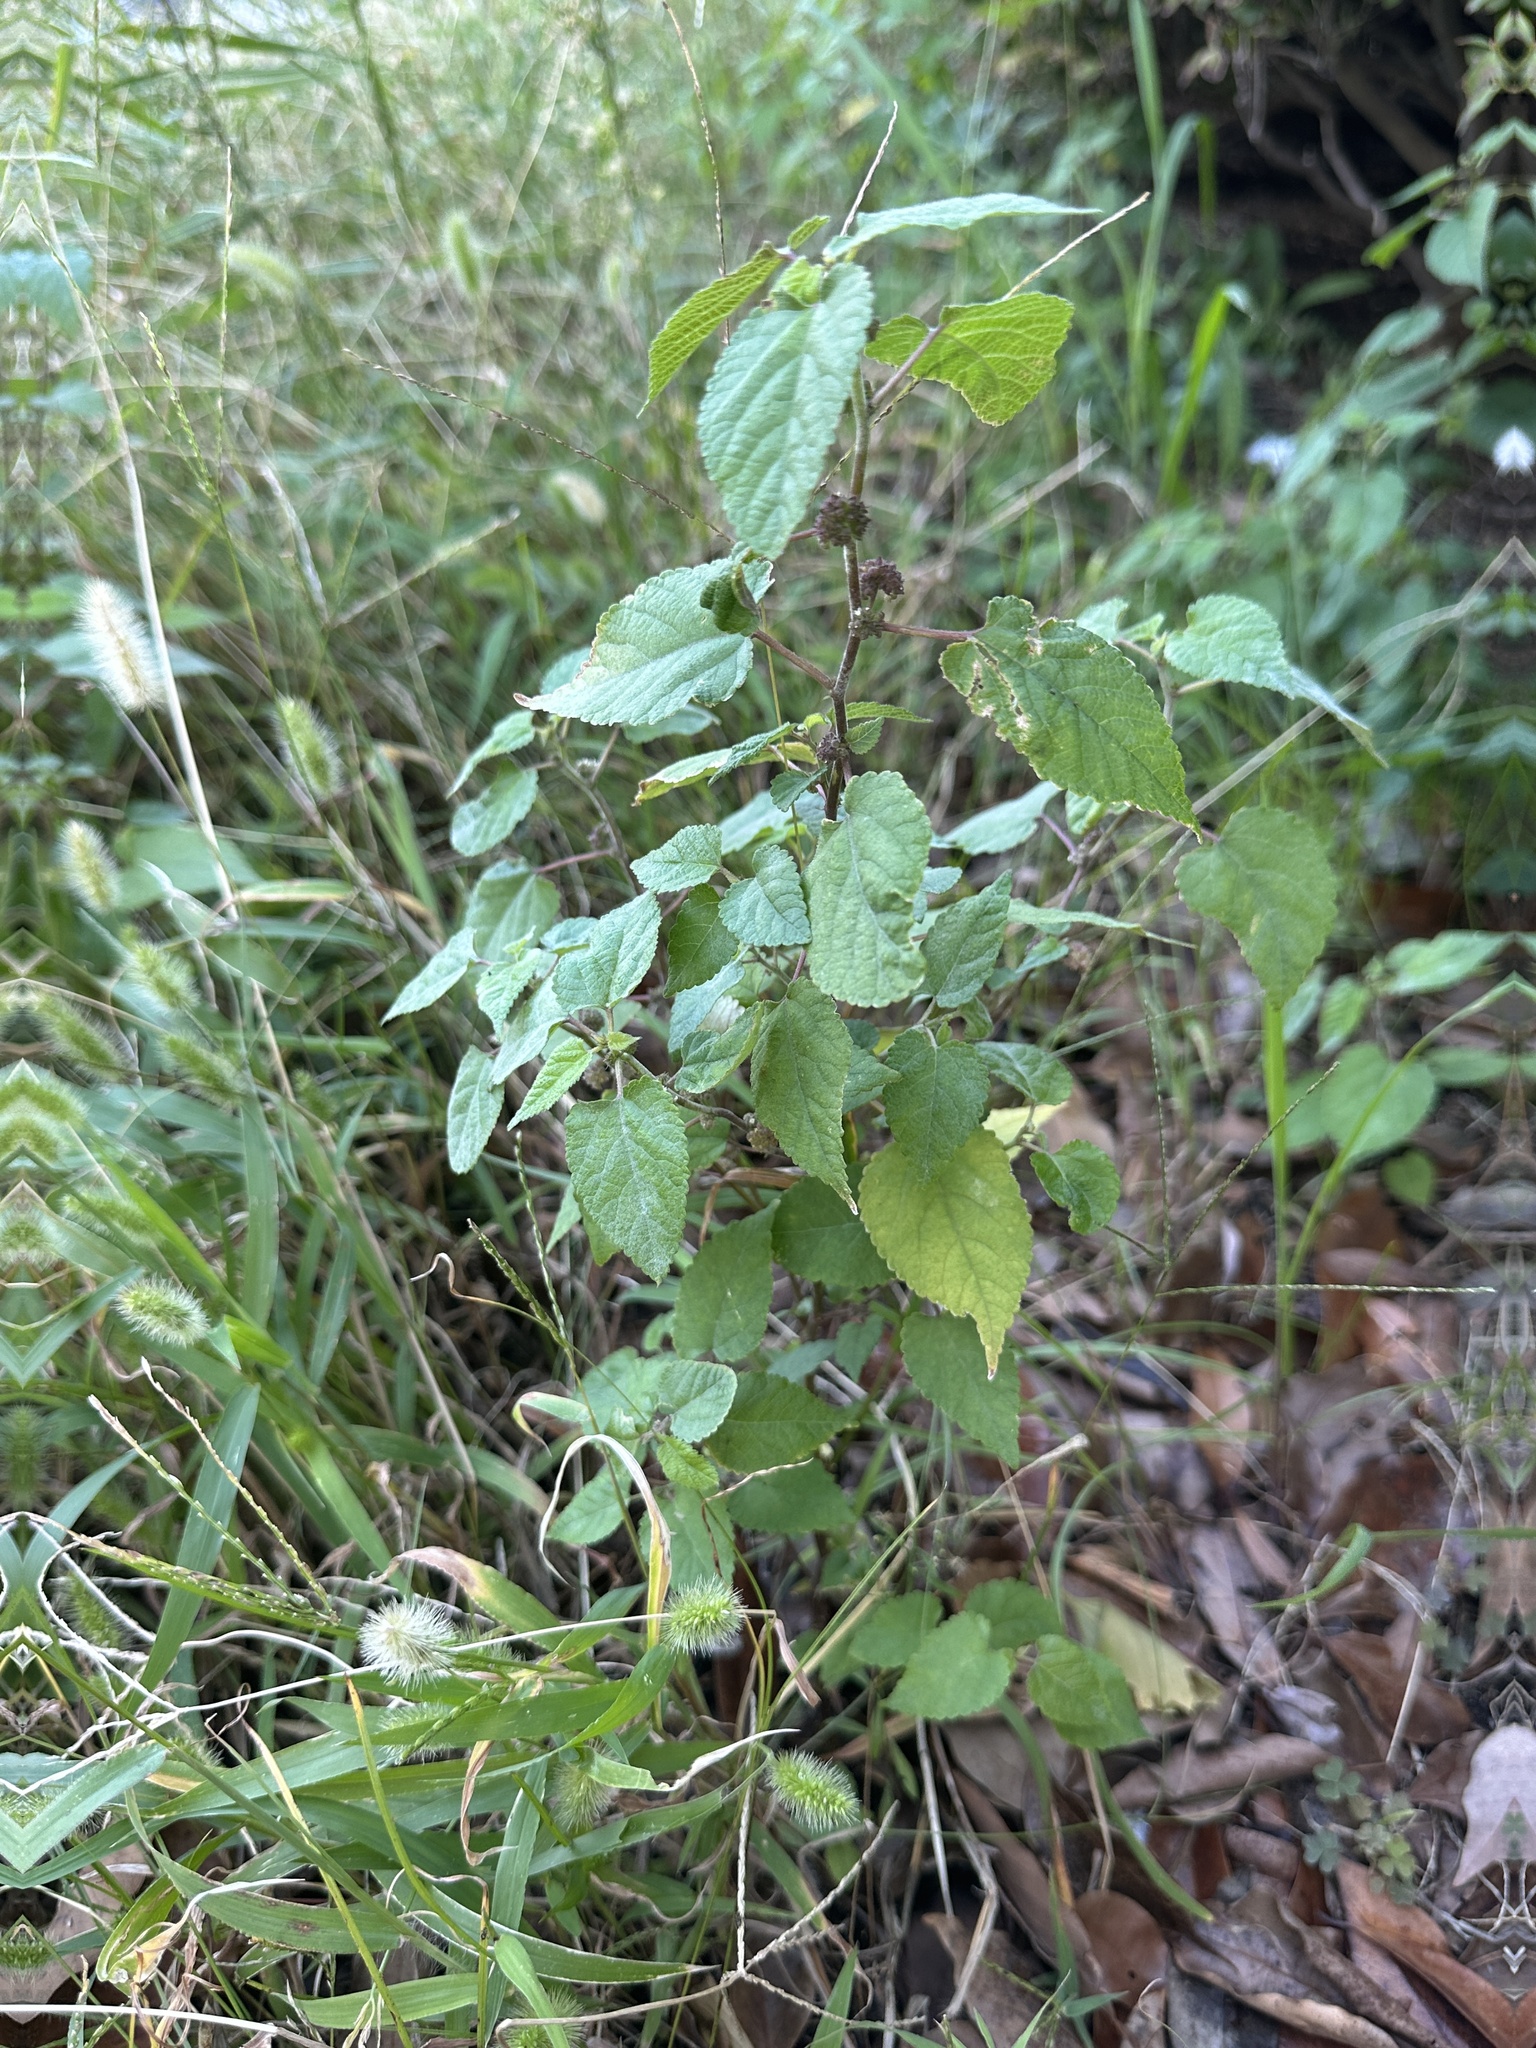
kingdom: Plantae
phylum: Tracheophyta
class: Magnoliopsida
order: Rosales
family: Moraceae
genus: Fatoua
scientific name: Fatoua villosa
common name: Hairy crabweed
